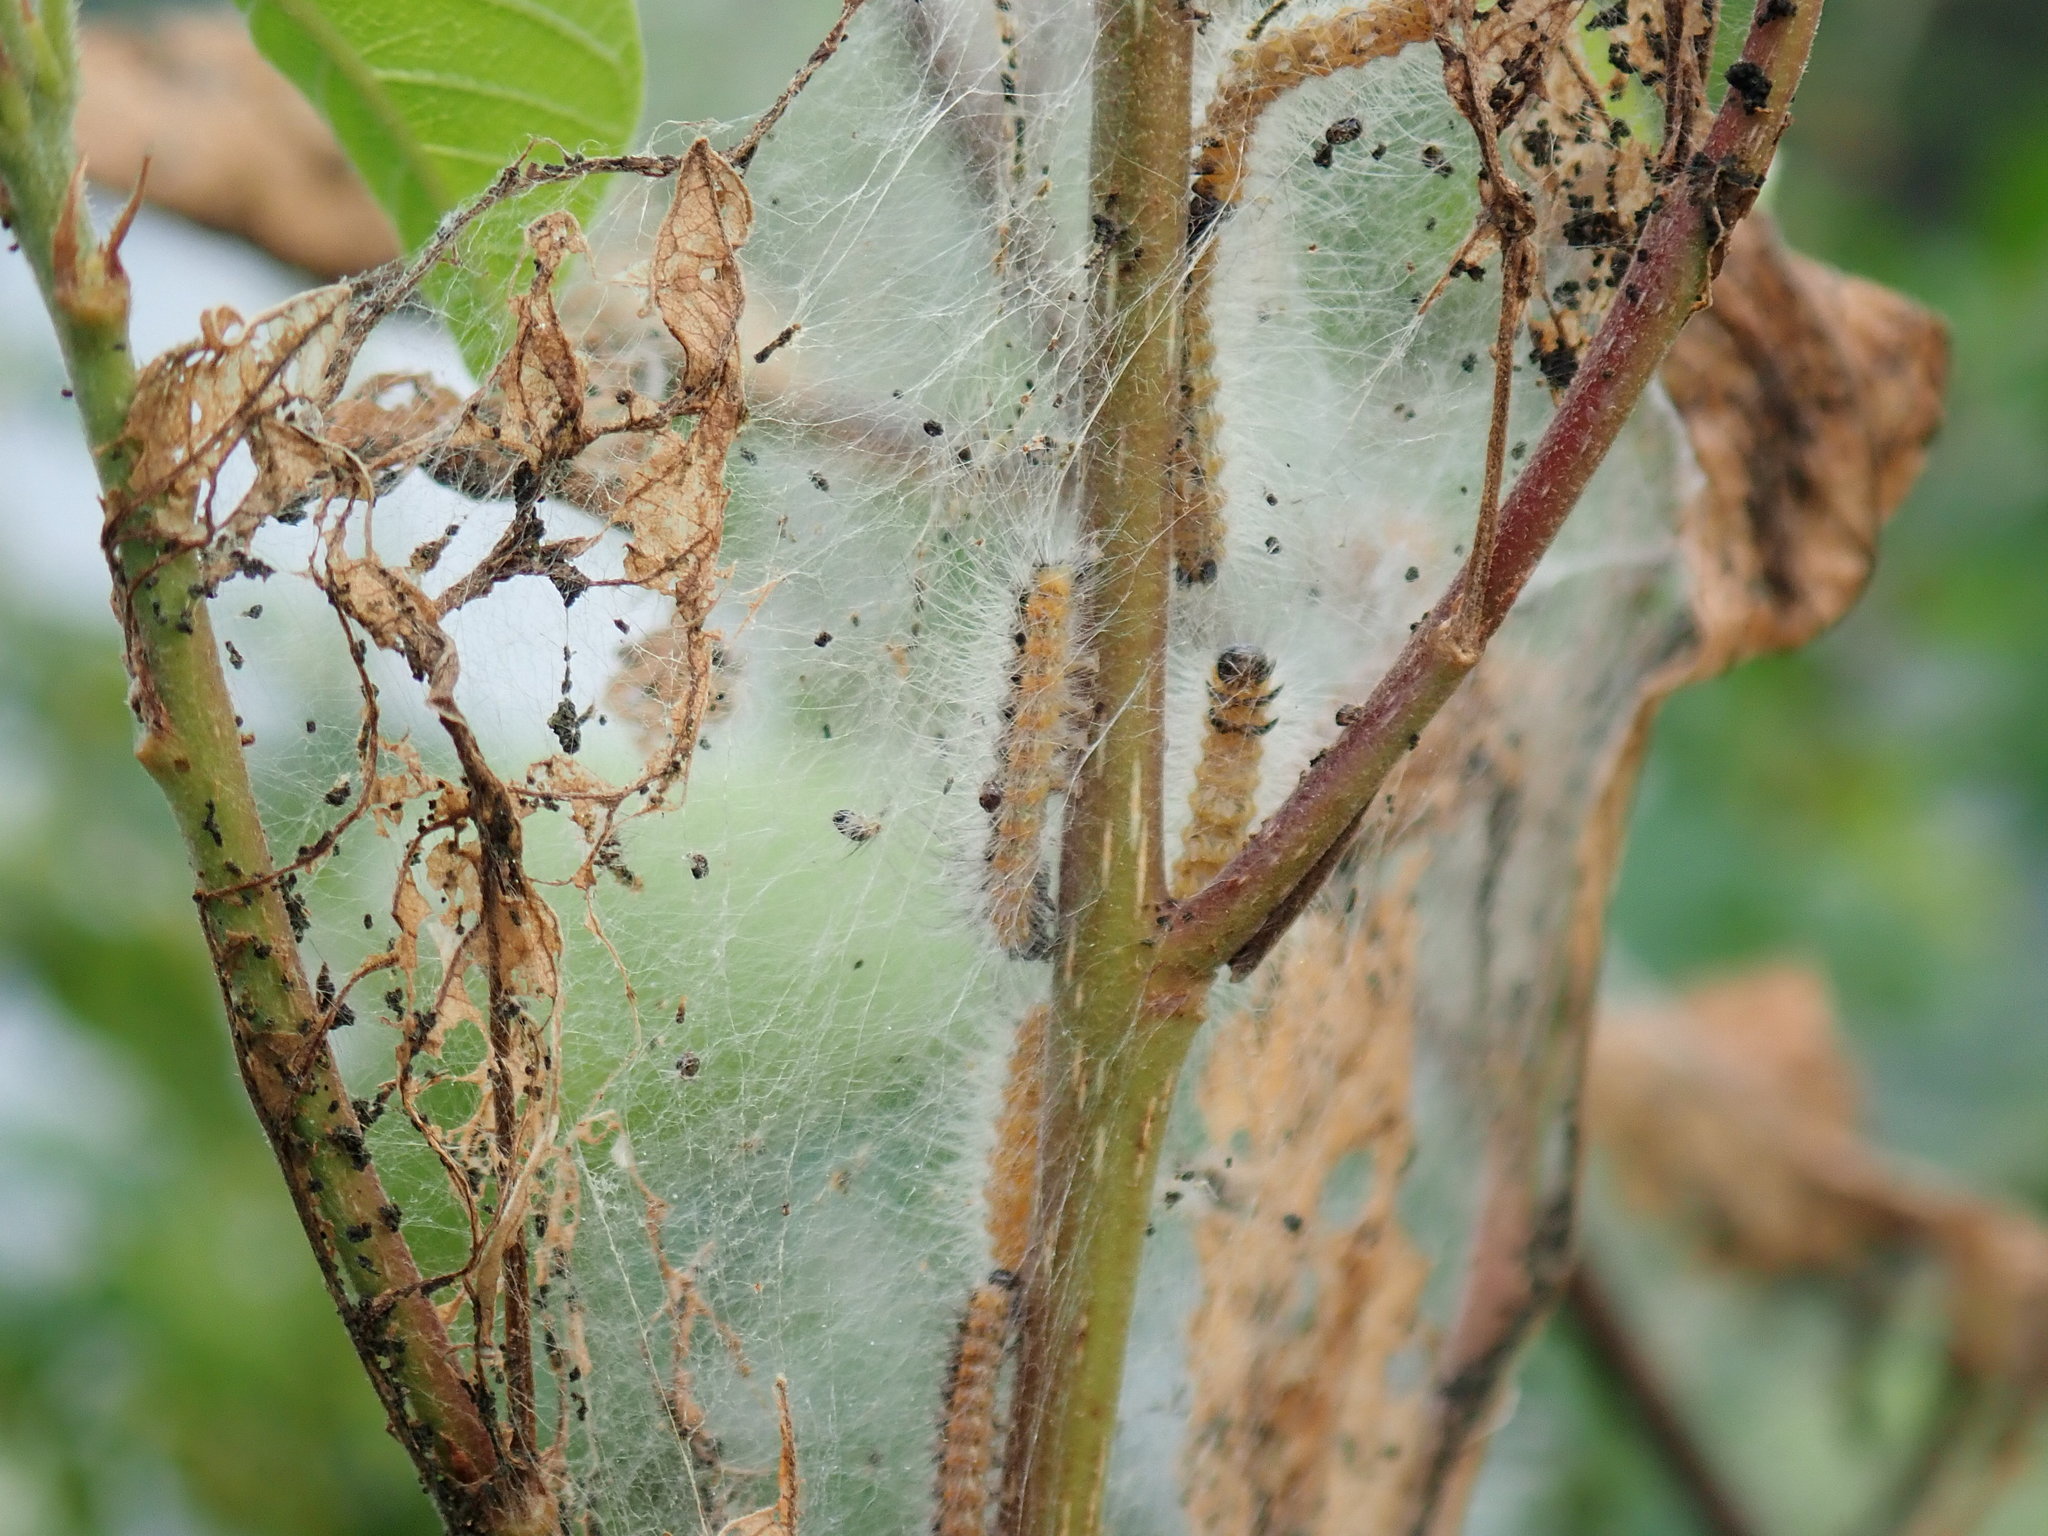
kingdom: Animalia
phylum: Arthropoda
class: Insecta
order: Lepidoptera
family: Erebidae
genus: Hyphantria
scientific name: Hyphantria cunea
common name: American white moth
